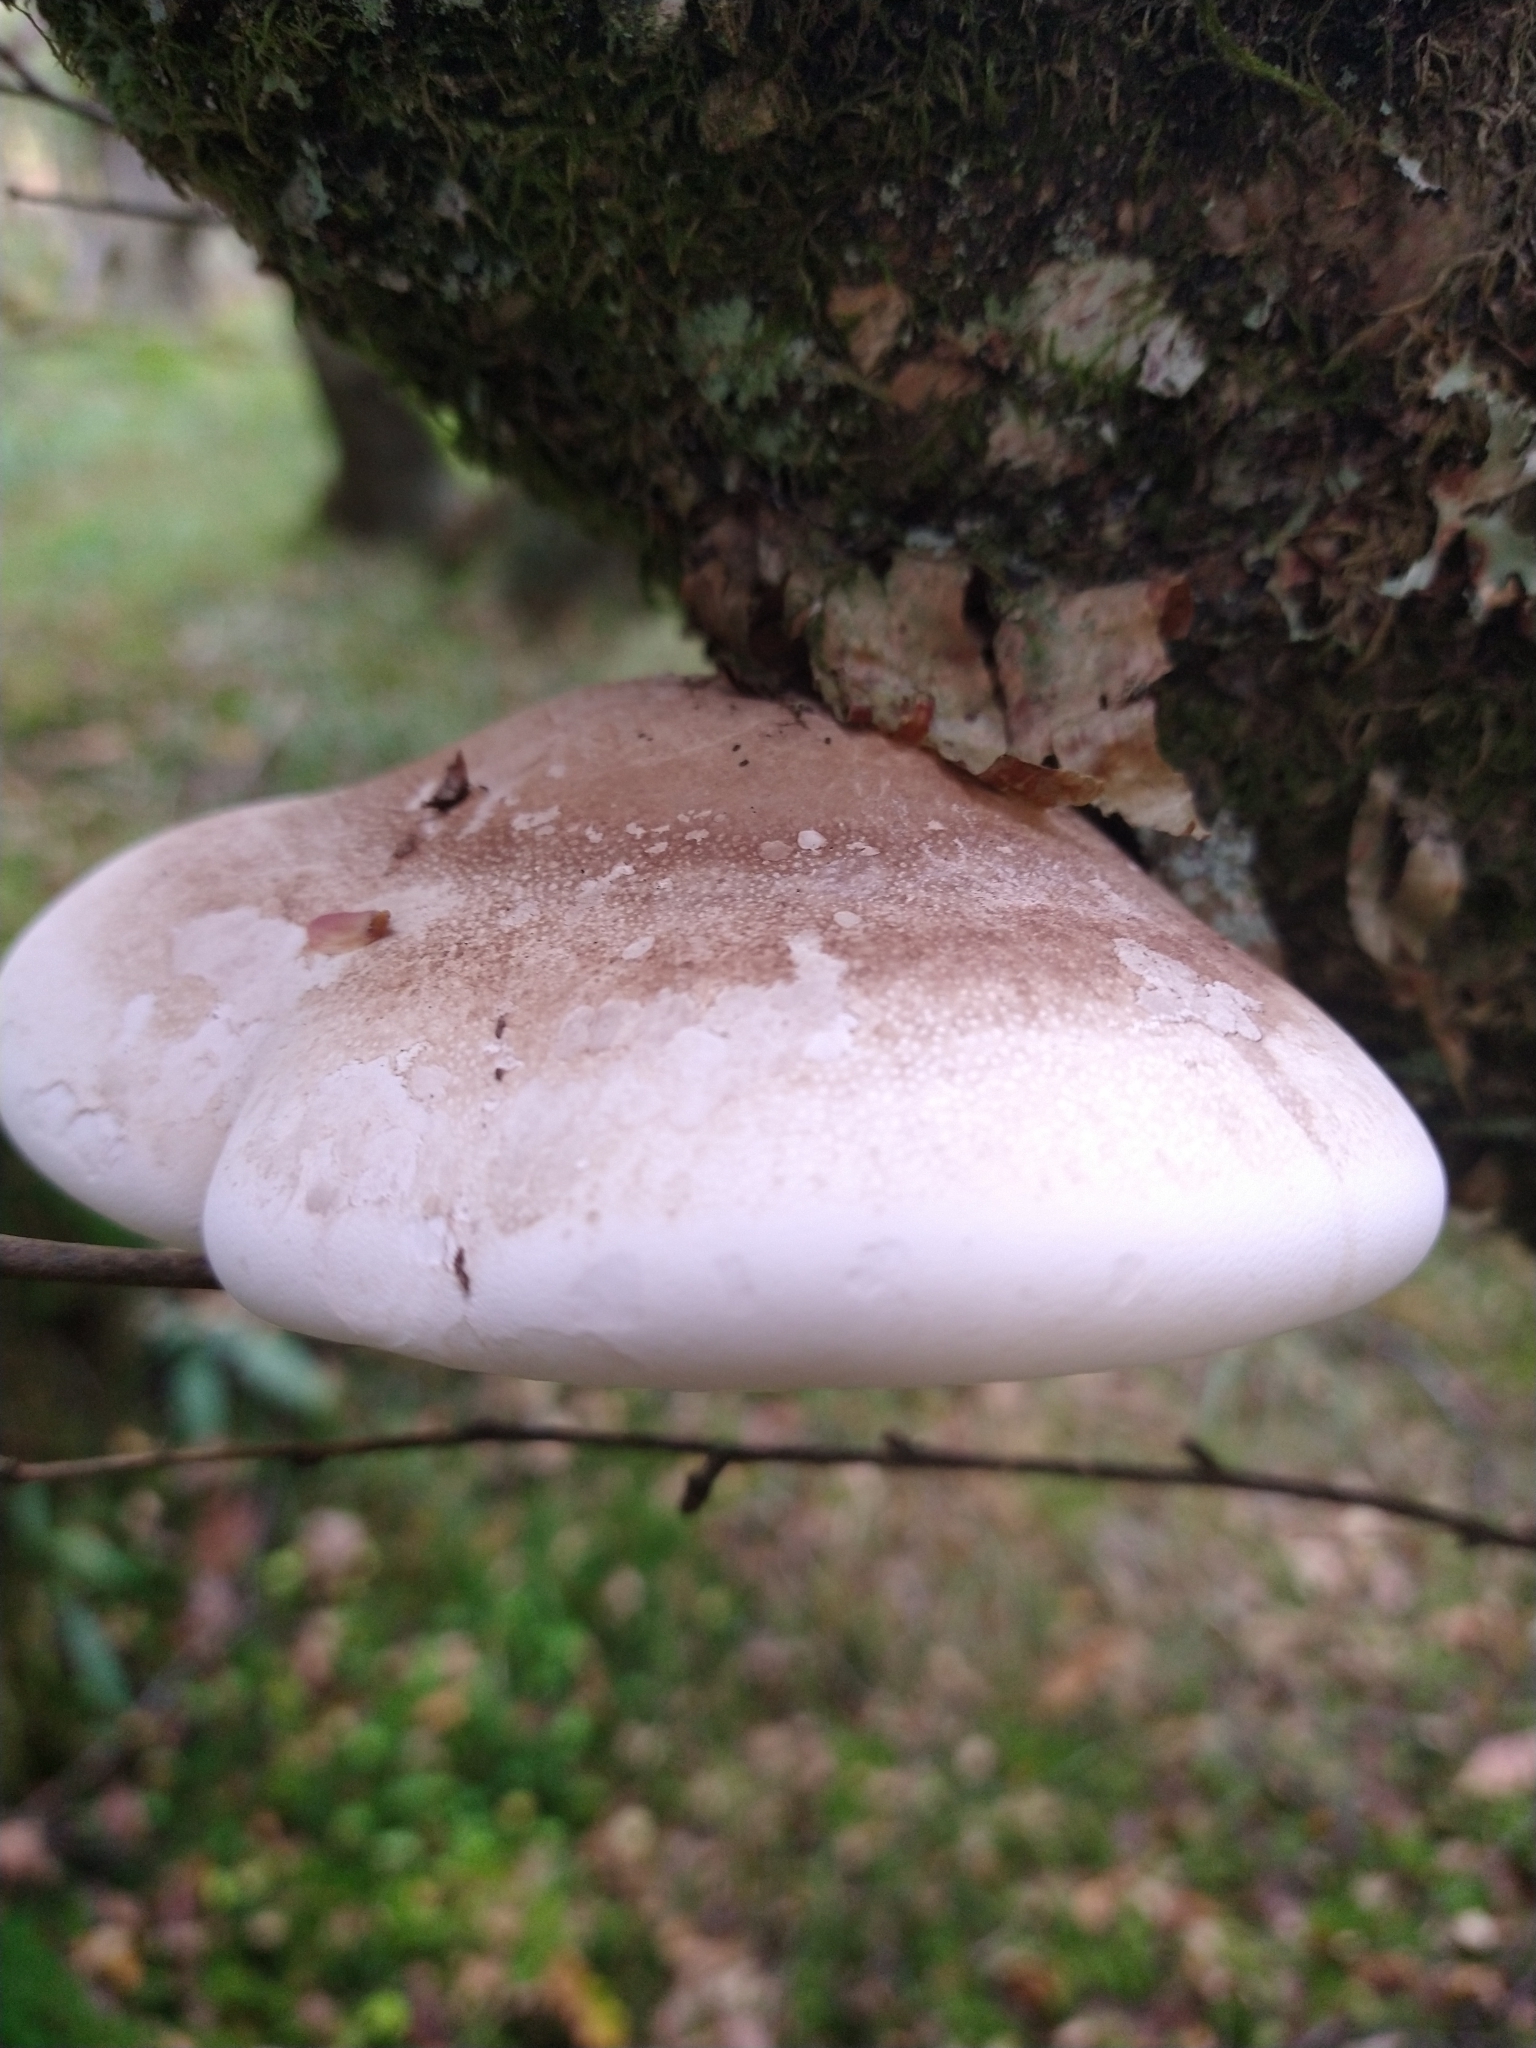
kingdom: Fungi
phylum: Basidiomycota
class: Agaricomycetes
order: Polyporales
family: Fomitopsidaceae
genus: Fomitopsis
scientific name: Fomitopsis betulina
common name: Birch polypore
